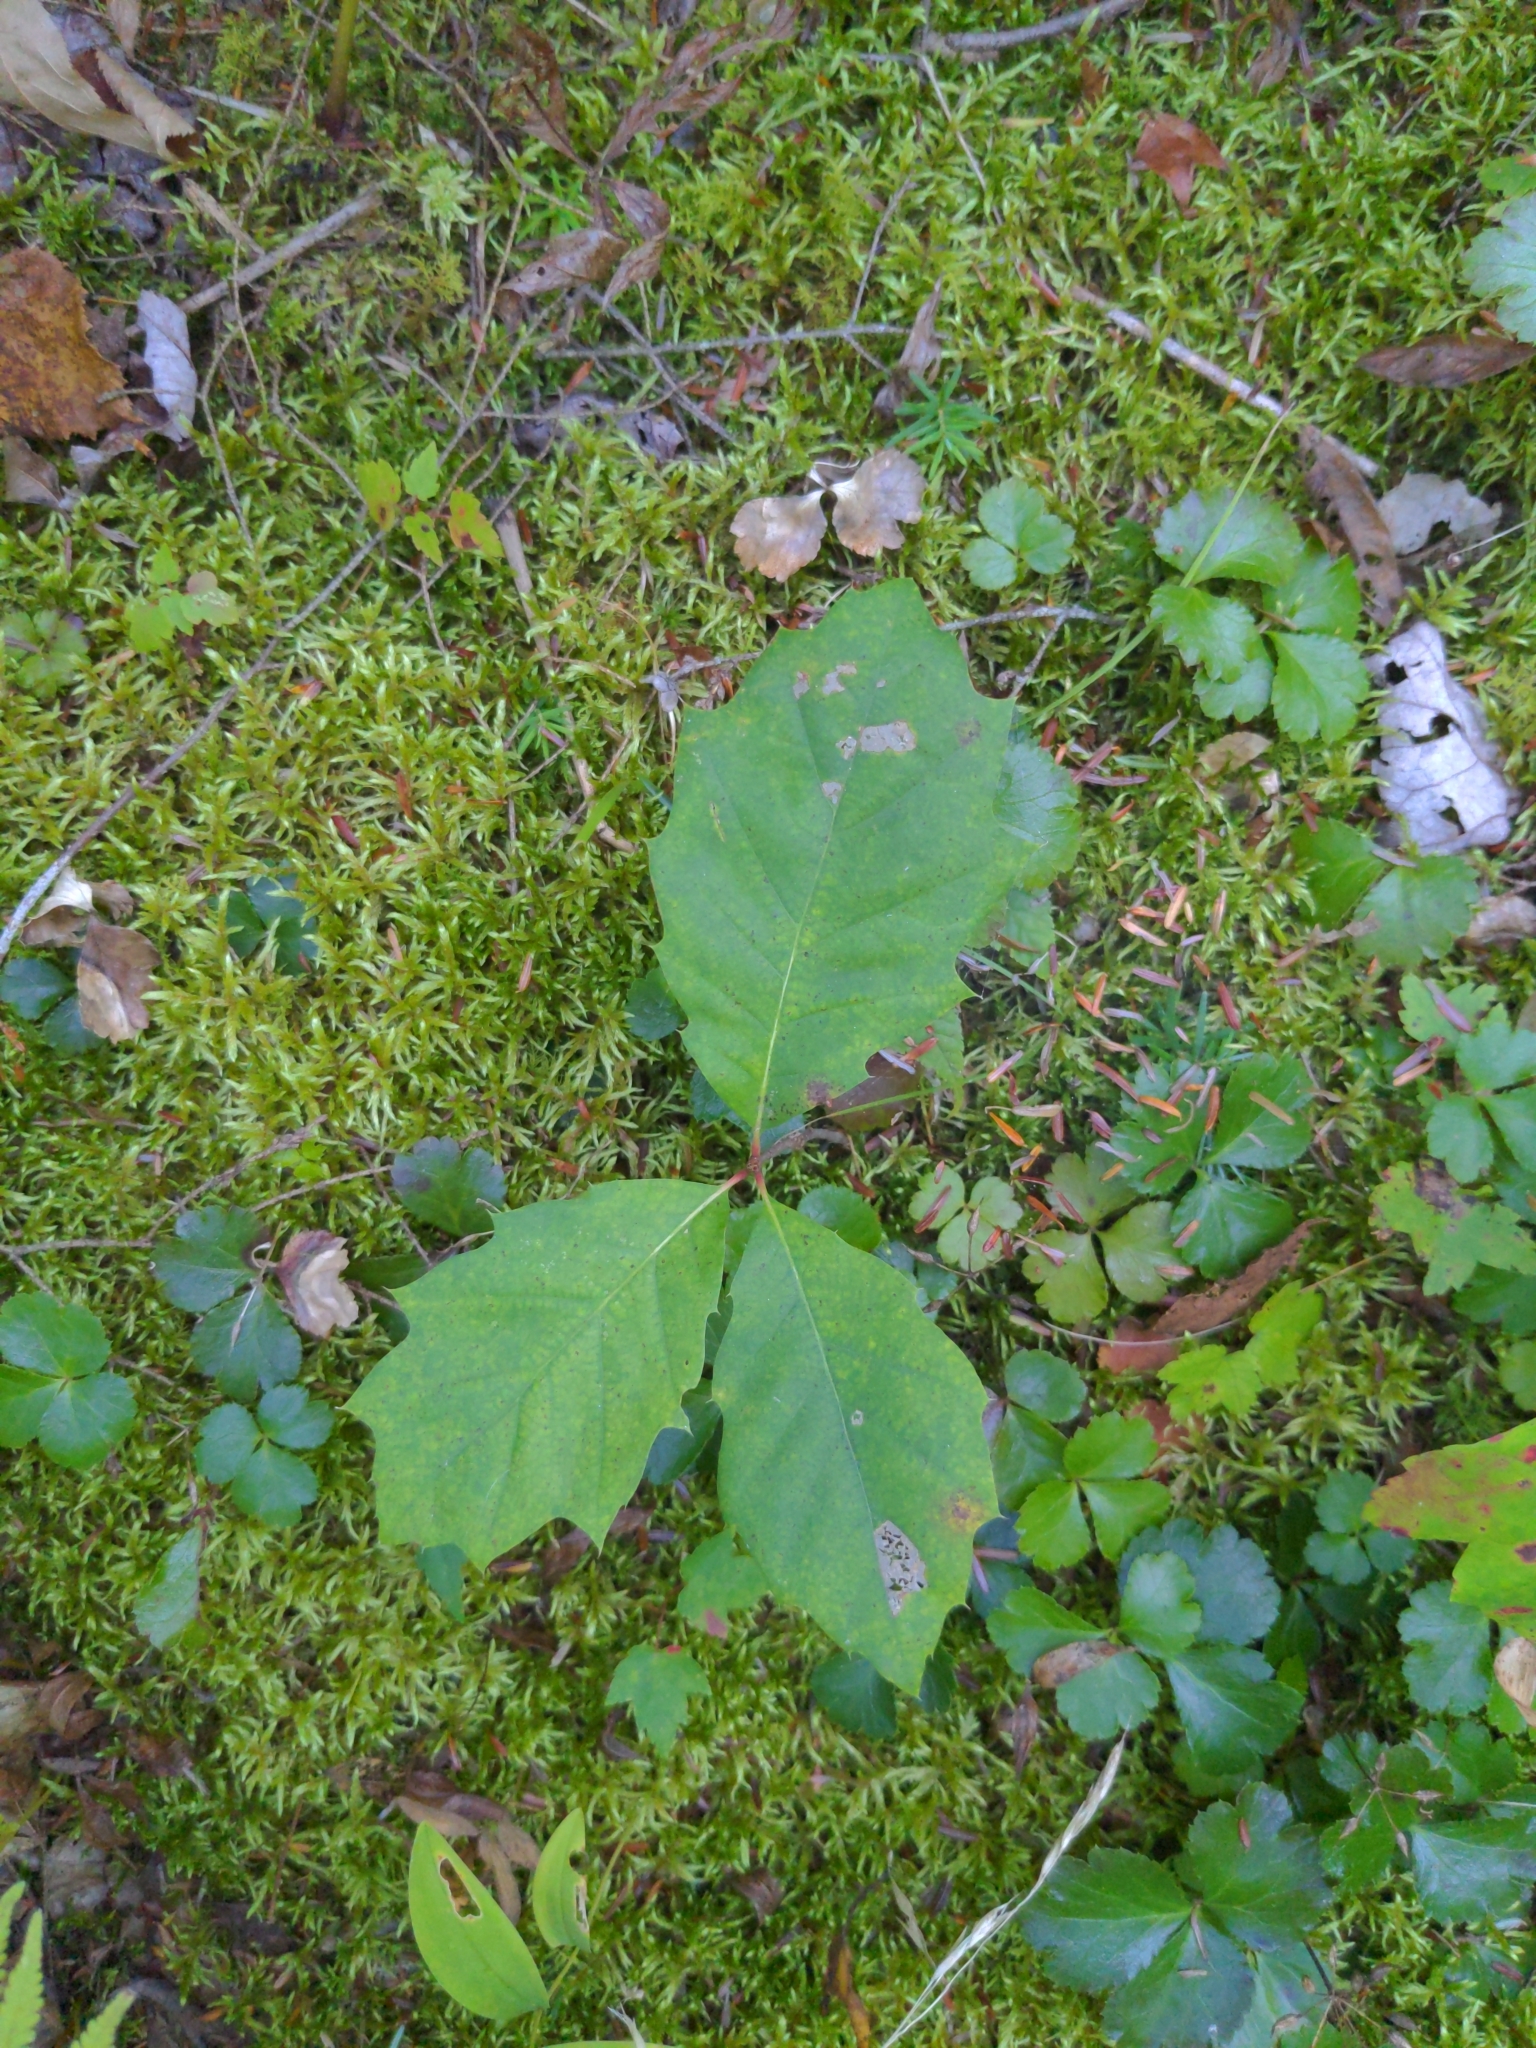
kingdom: Plantae
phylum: Tracheophyta
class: Magnoliopsida
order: Fagales
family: Fagaceae
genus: Quercus
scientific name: Quercus rubra
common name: Red oak
